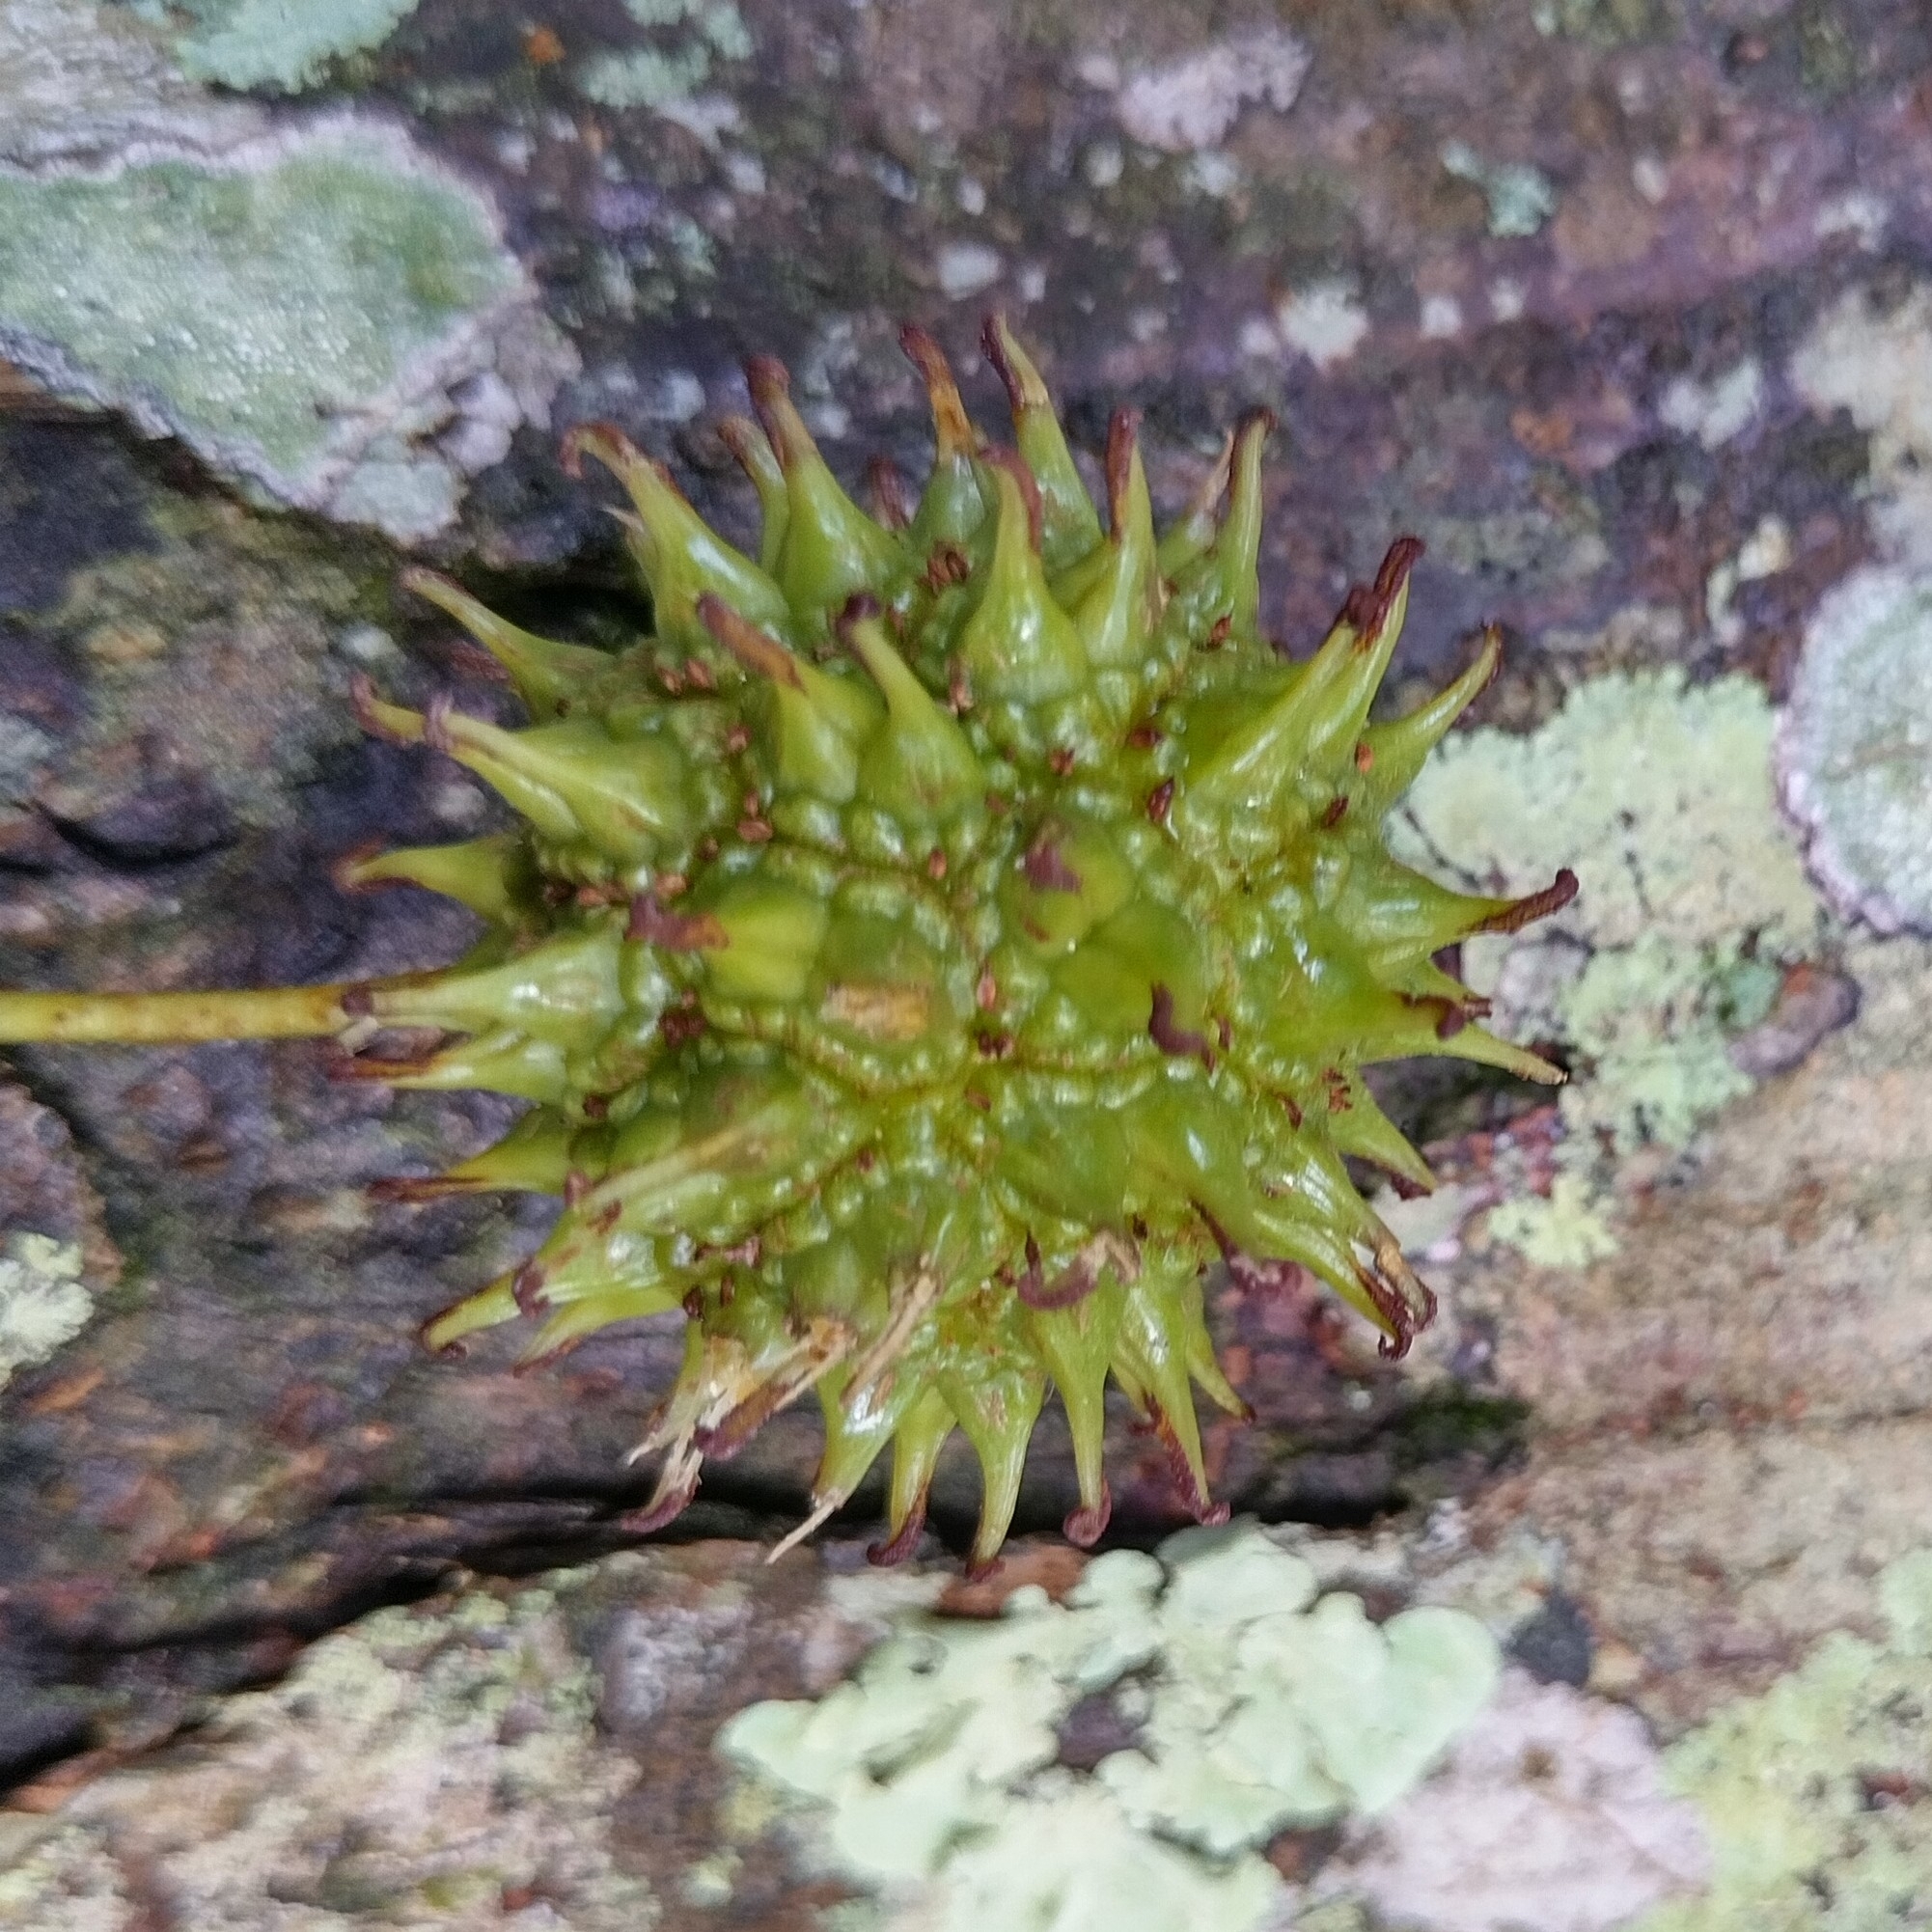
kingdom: Plantae
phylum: Tracheophyta
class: Magnoliopsida
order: Saxifragales
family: Altingiaceae
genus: Liquidambar
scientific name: Liquidambar styraciflua
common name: Sweet gum
